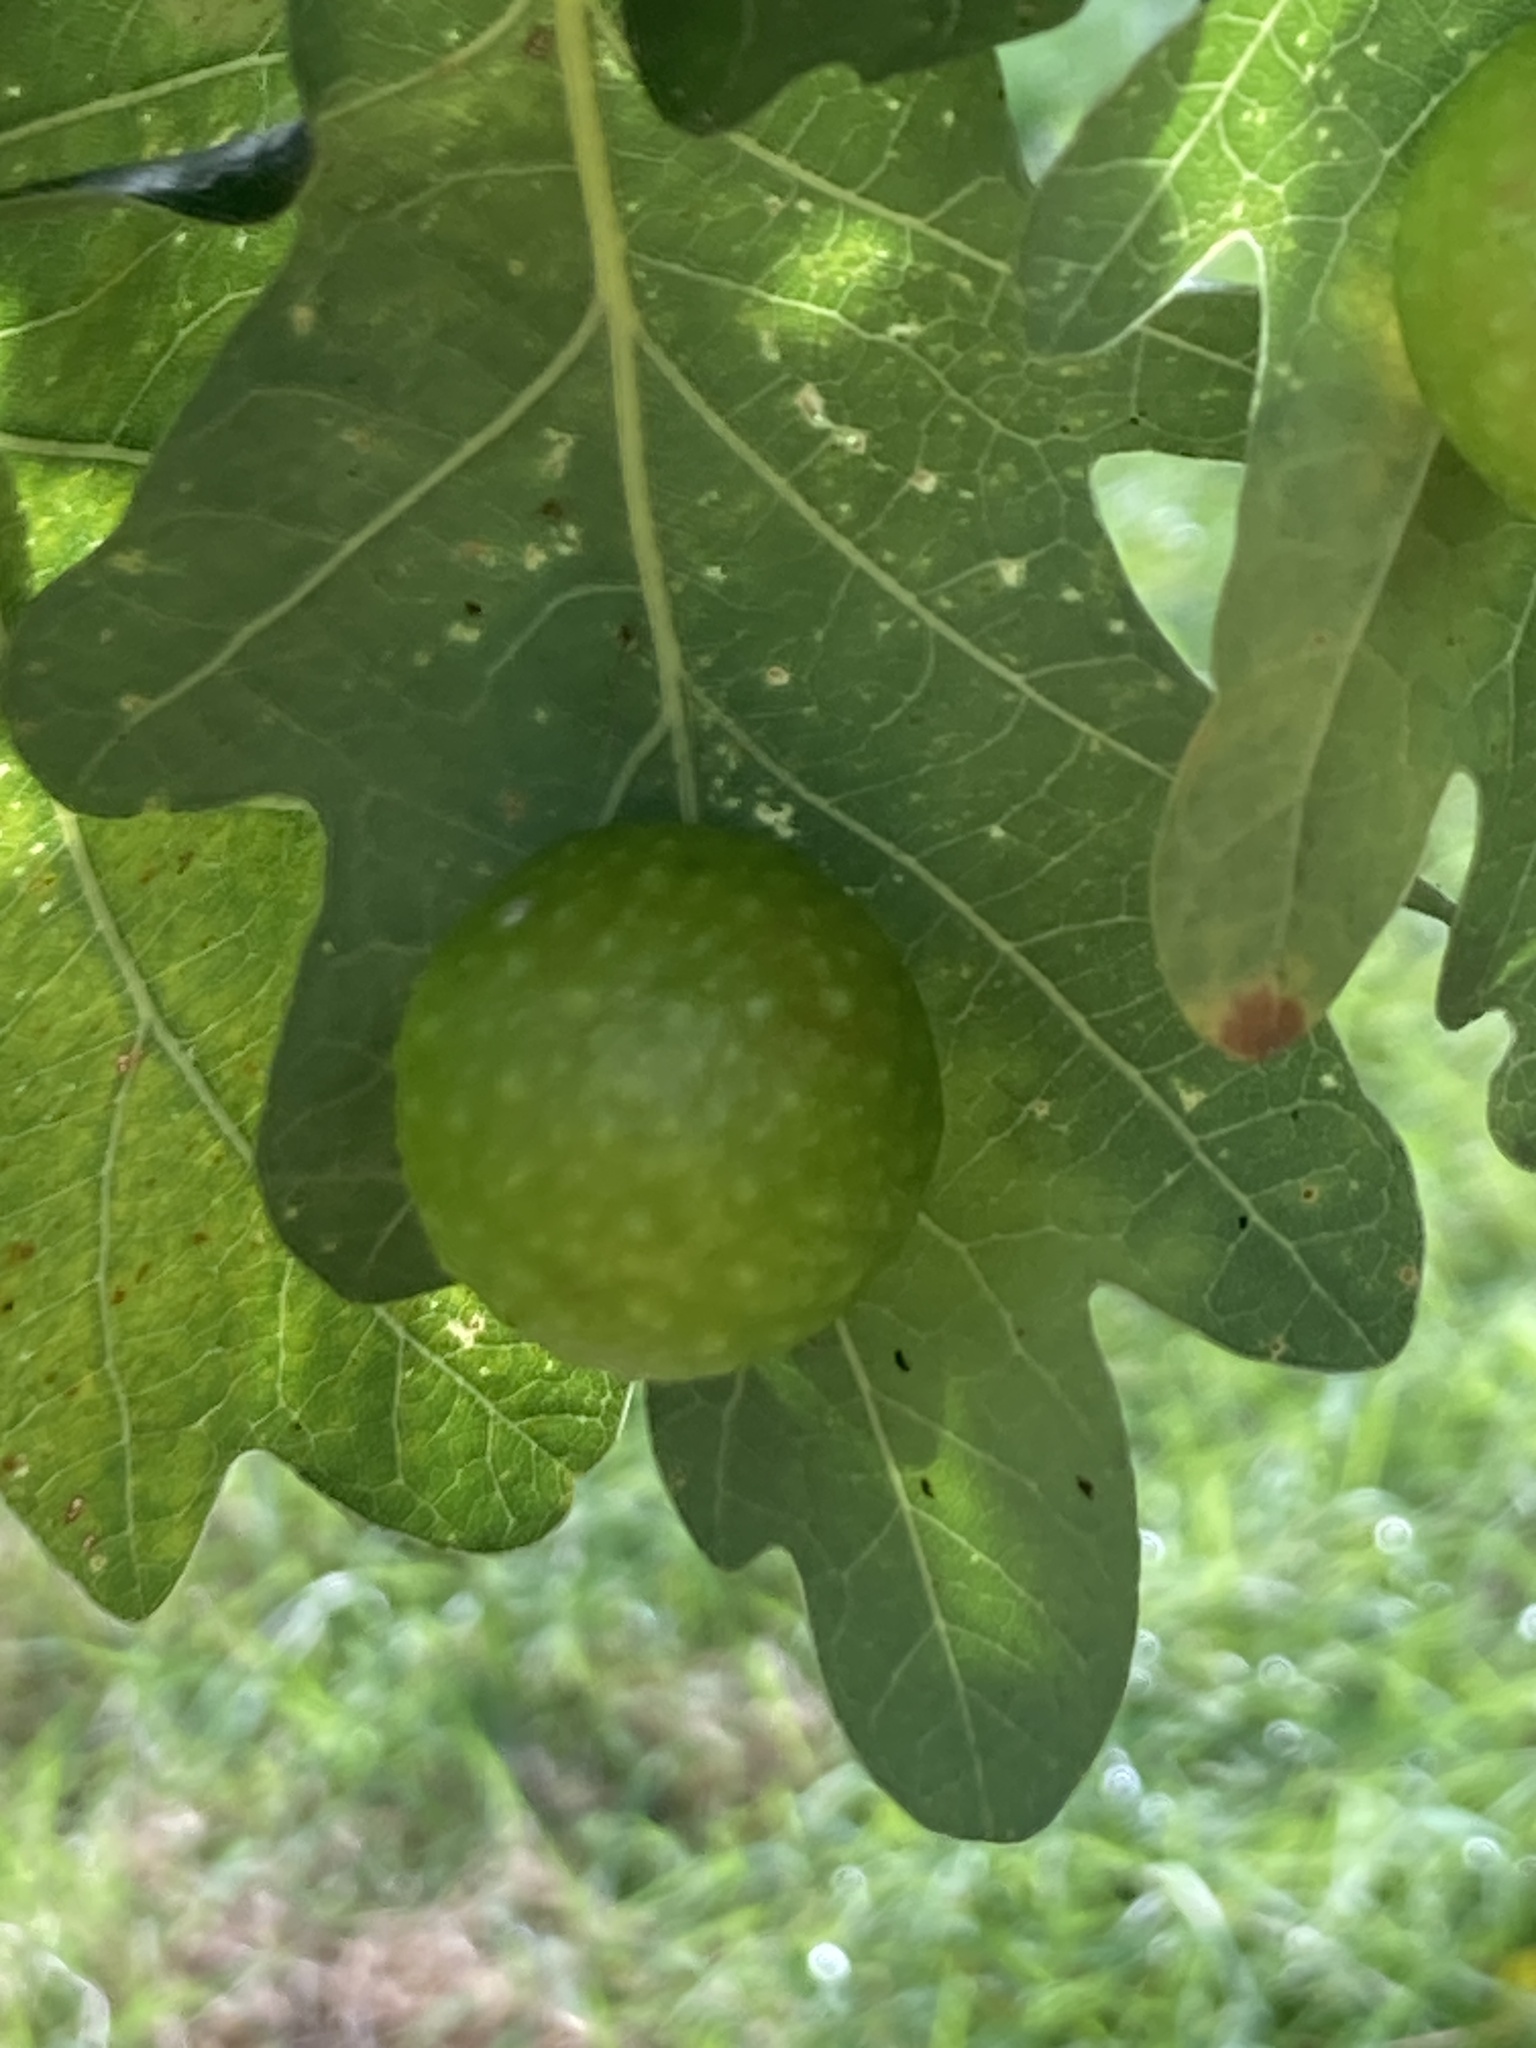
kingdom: Animalia
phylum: Arthropoda
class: Insecta
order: Hymenoptera
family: Cynipidae
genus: Cynips
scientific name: Cynips quercusfolii
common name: Cherry gall
